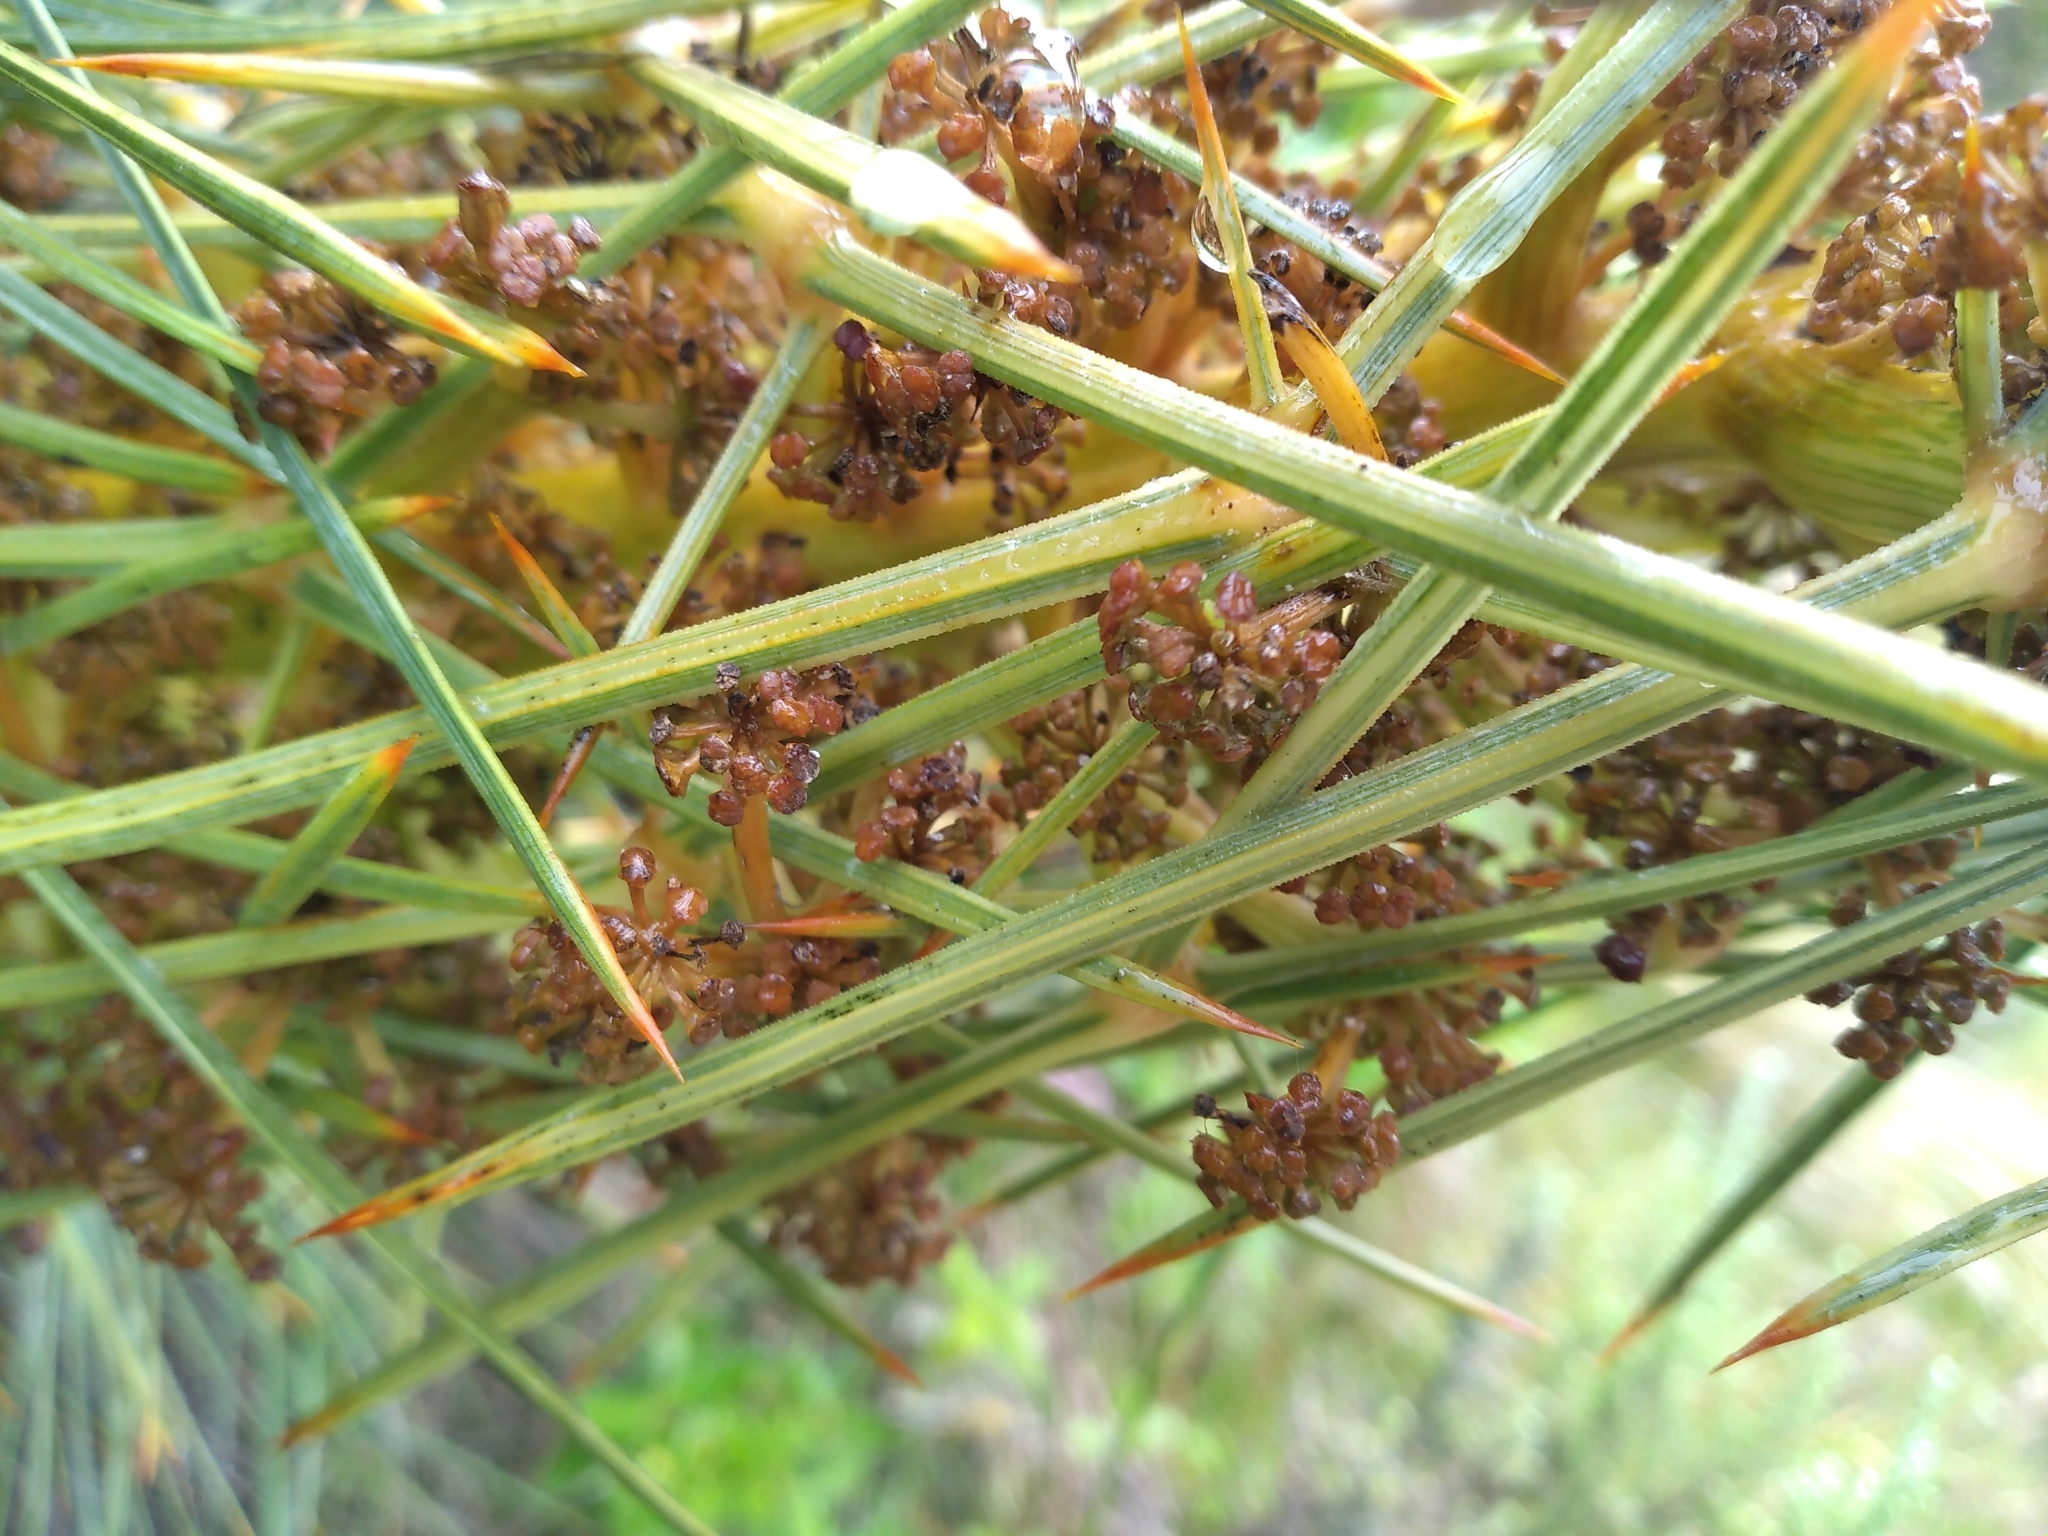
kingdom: Plantae
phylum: Tracheophyta
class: Magnoliopsida
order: Apiales
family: Apiaceae
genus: Aciphylla
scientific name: Aciphylla squarrosa
